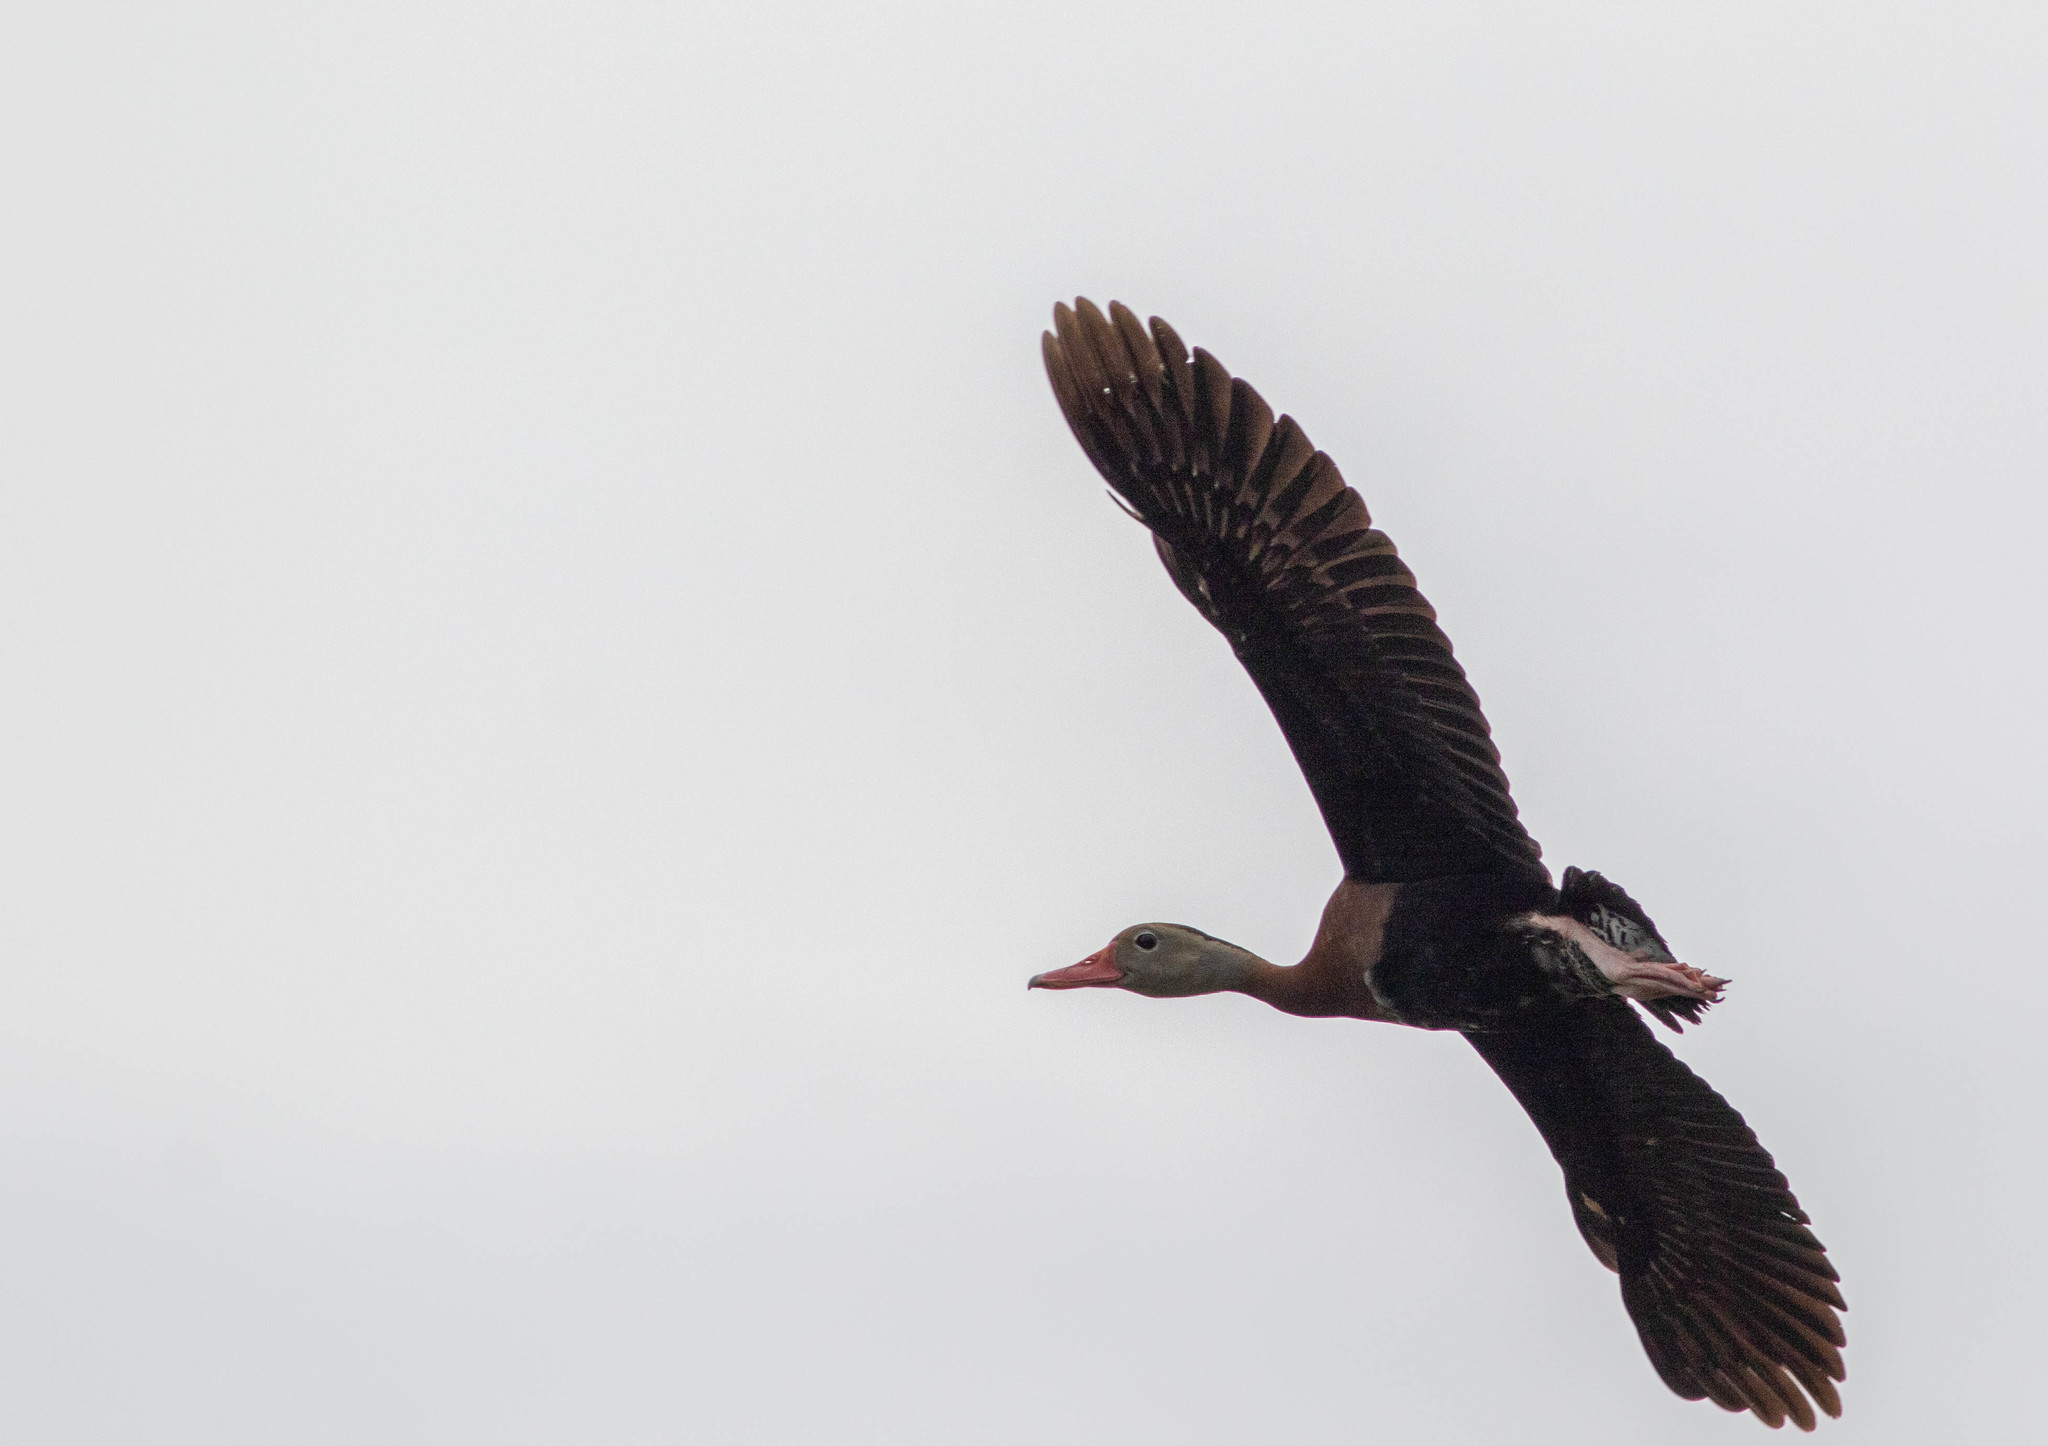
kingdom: Animalia
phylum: Chordata
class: Aves
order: Anseriformes
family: Anatidae
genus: Dendrocygna
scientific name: Dendrocygna autumnalis
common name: Black-bellied whistling duck
